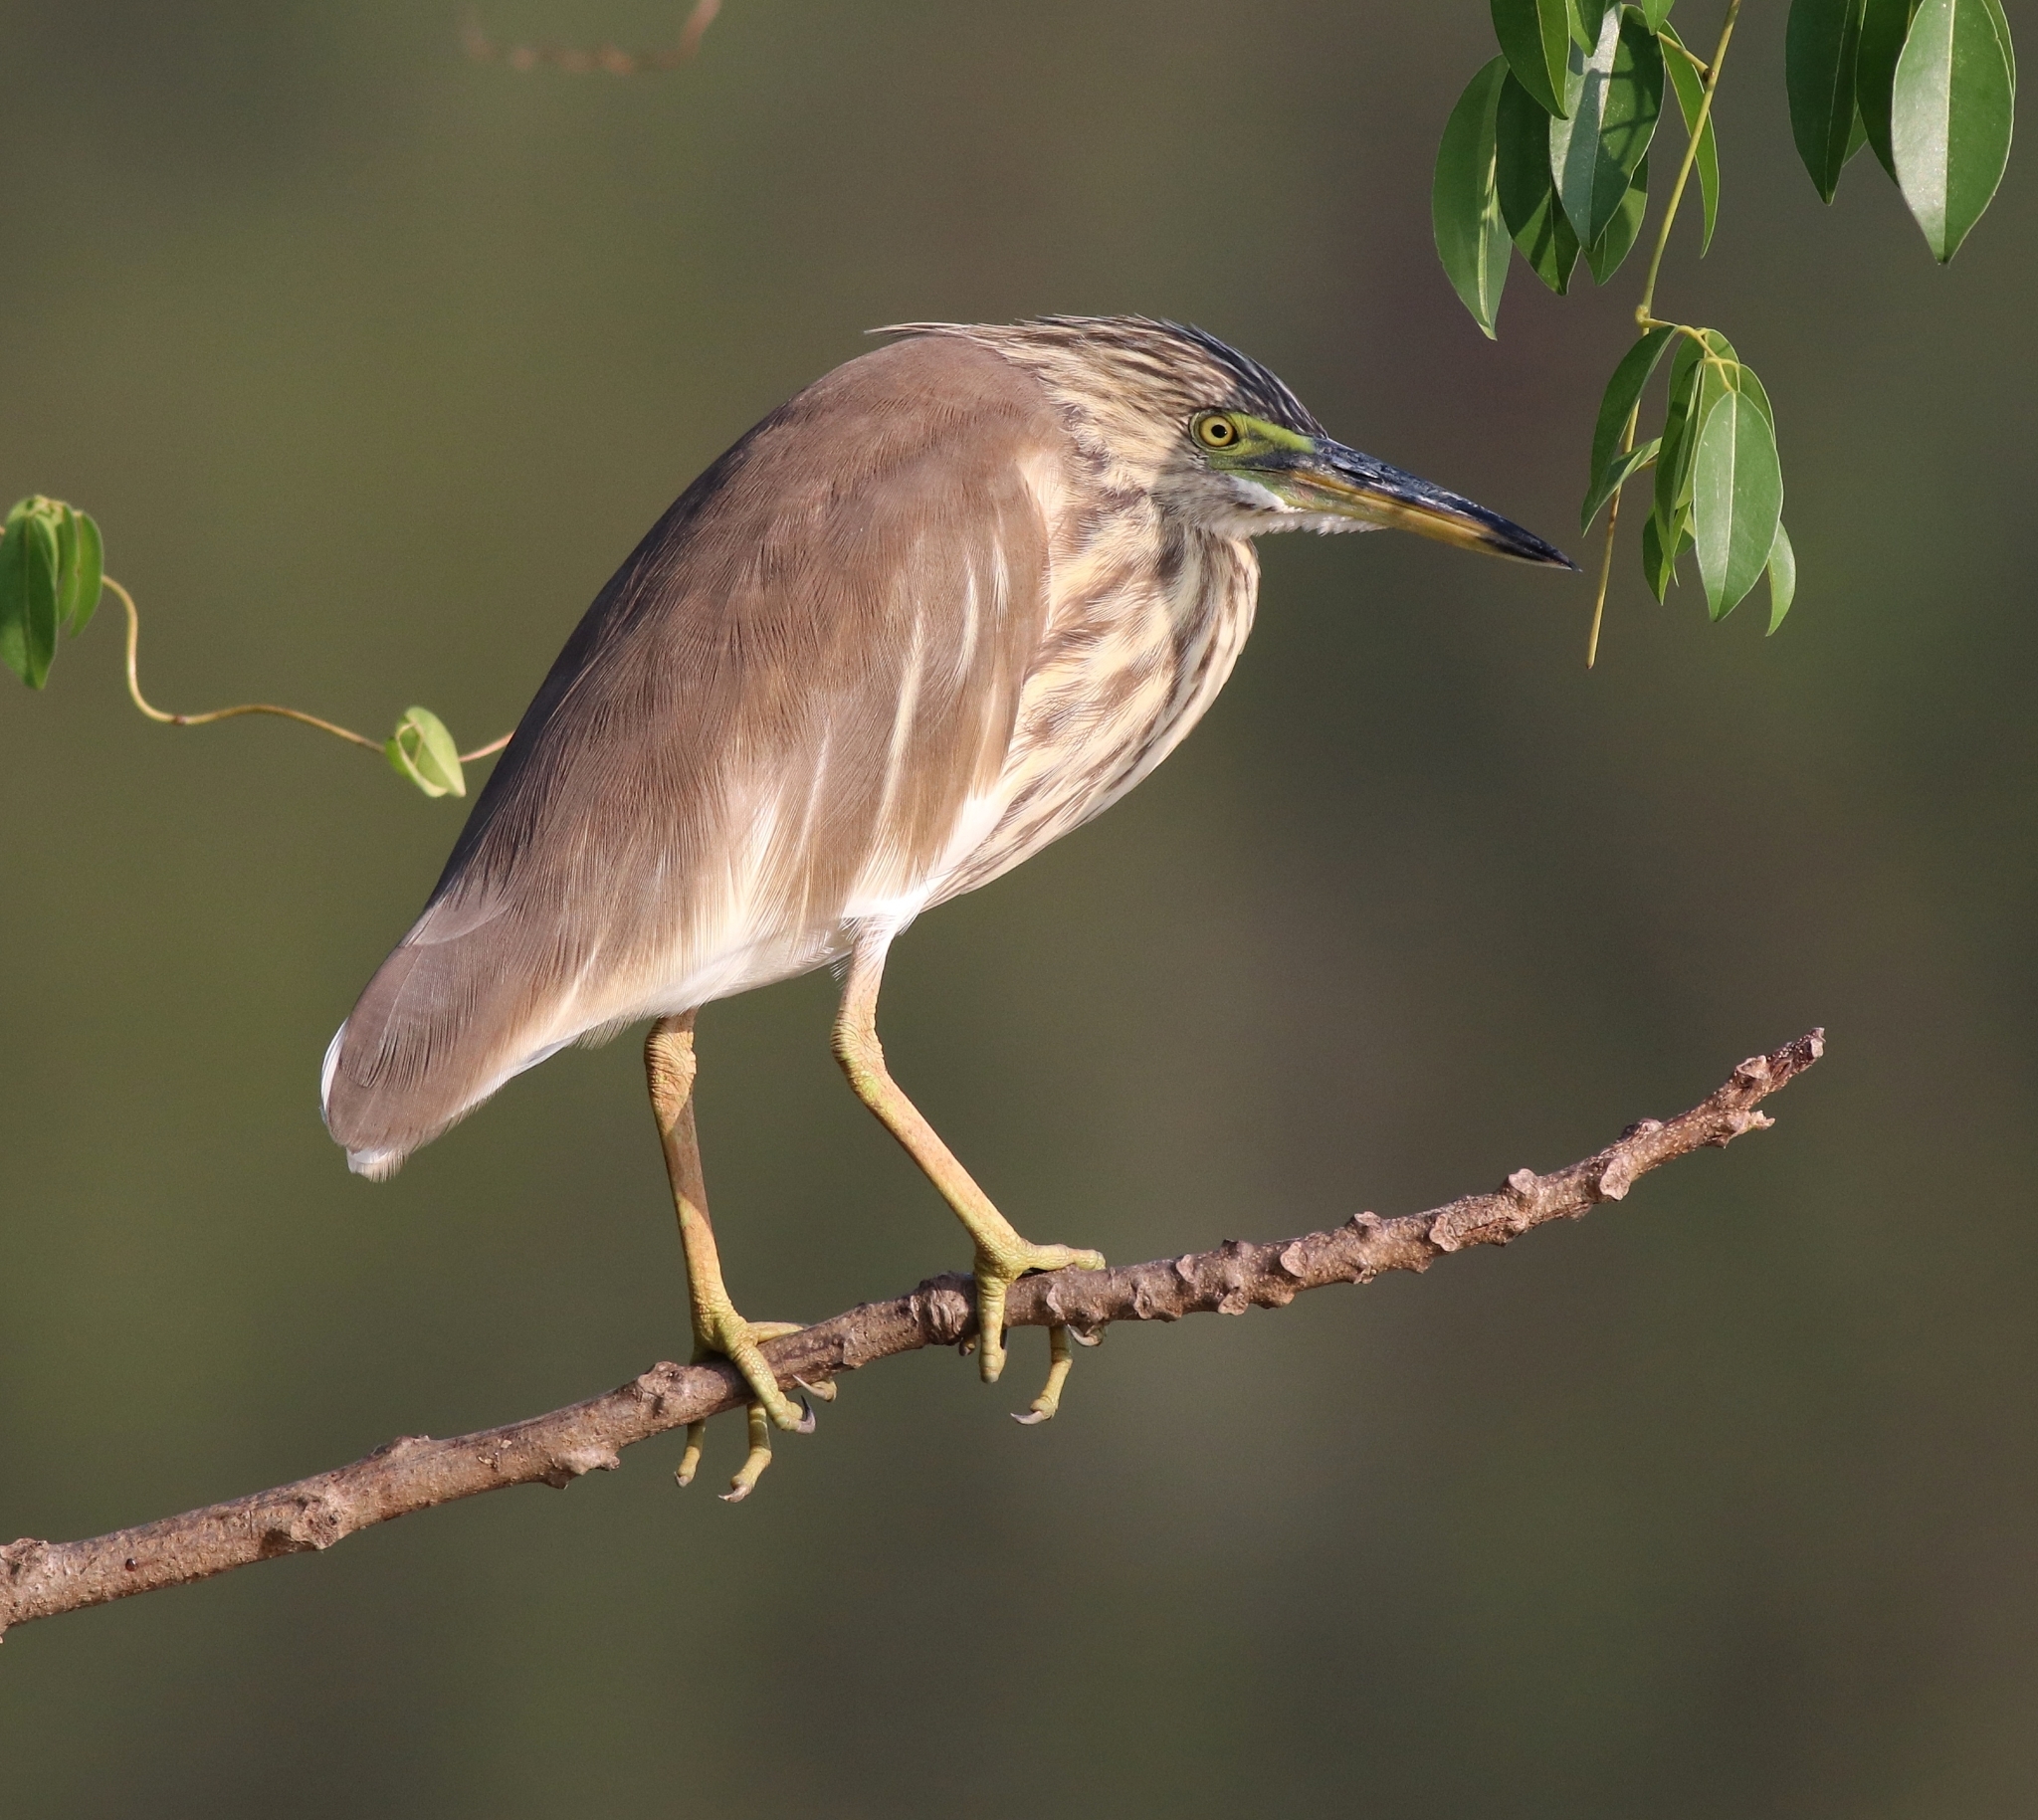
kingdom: Animalia
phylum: Chordata
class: Aves
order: Pelecaniformes
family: Ardeidae
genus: Ardeola
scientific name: Ardeola grayii
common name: Indian pond heron
